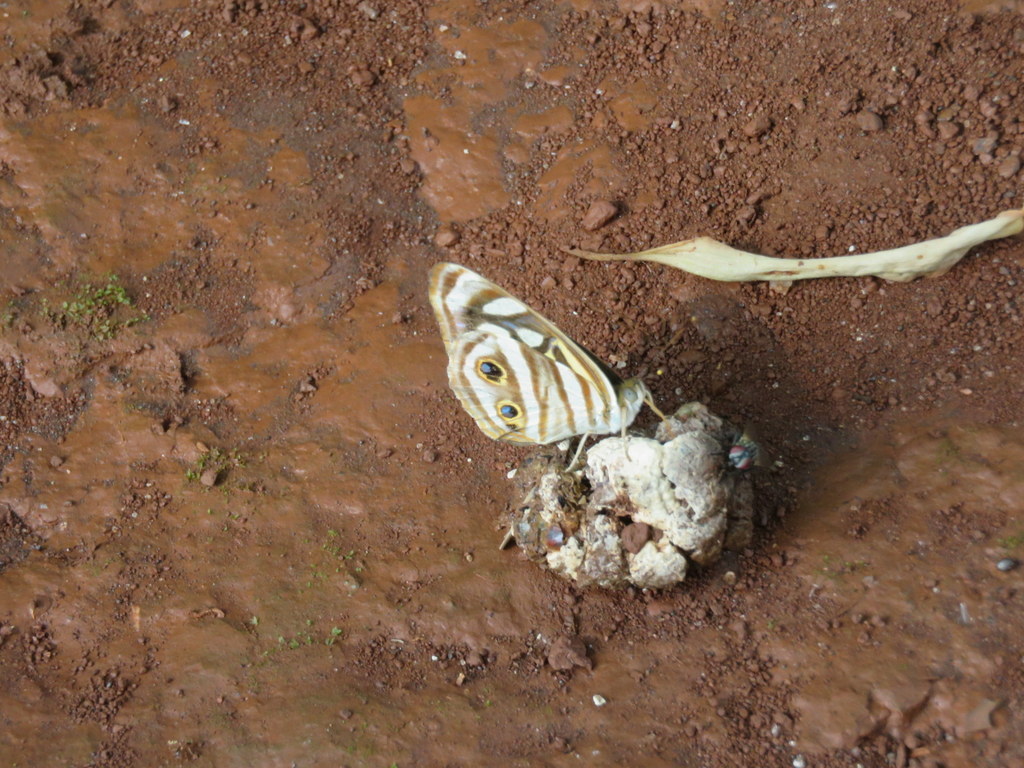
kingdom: Animalia
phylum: Arthropoda
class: Insecta
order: Lepidoptera
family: Nymphalidae
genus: Dynamine
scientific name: Dynamine mylitta
